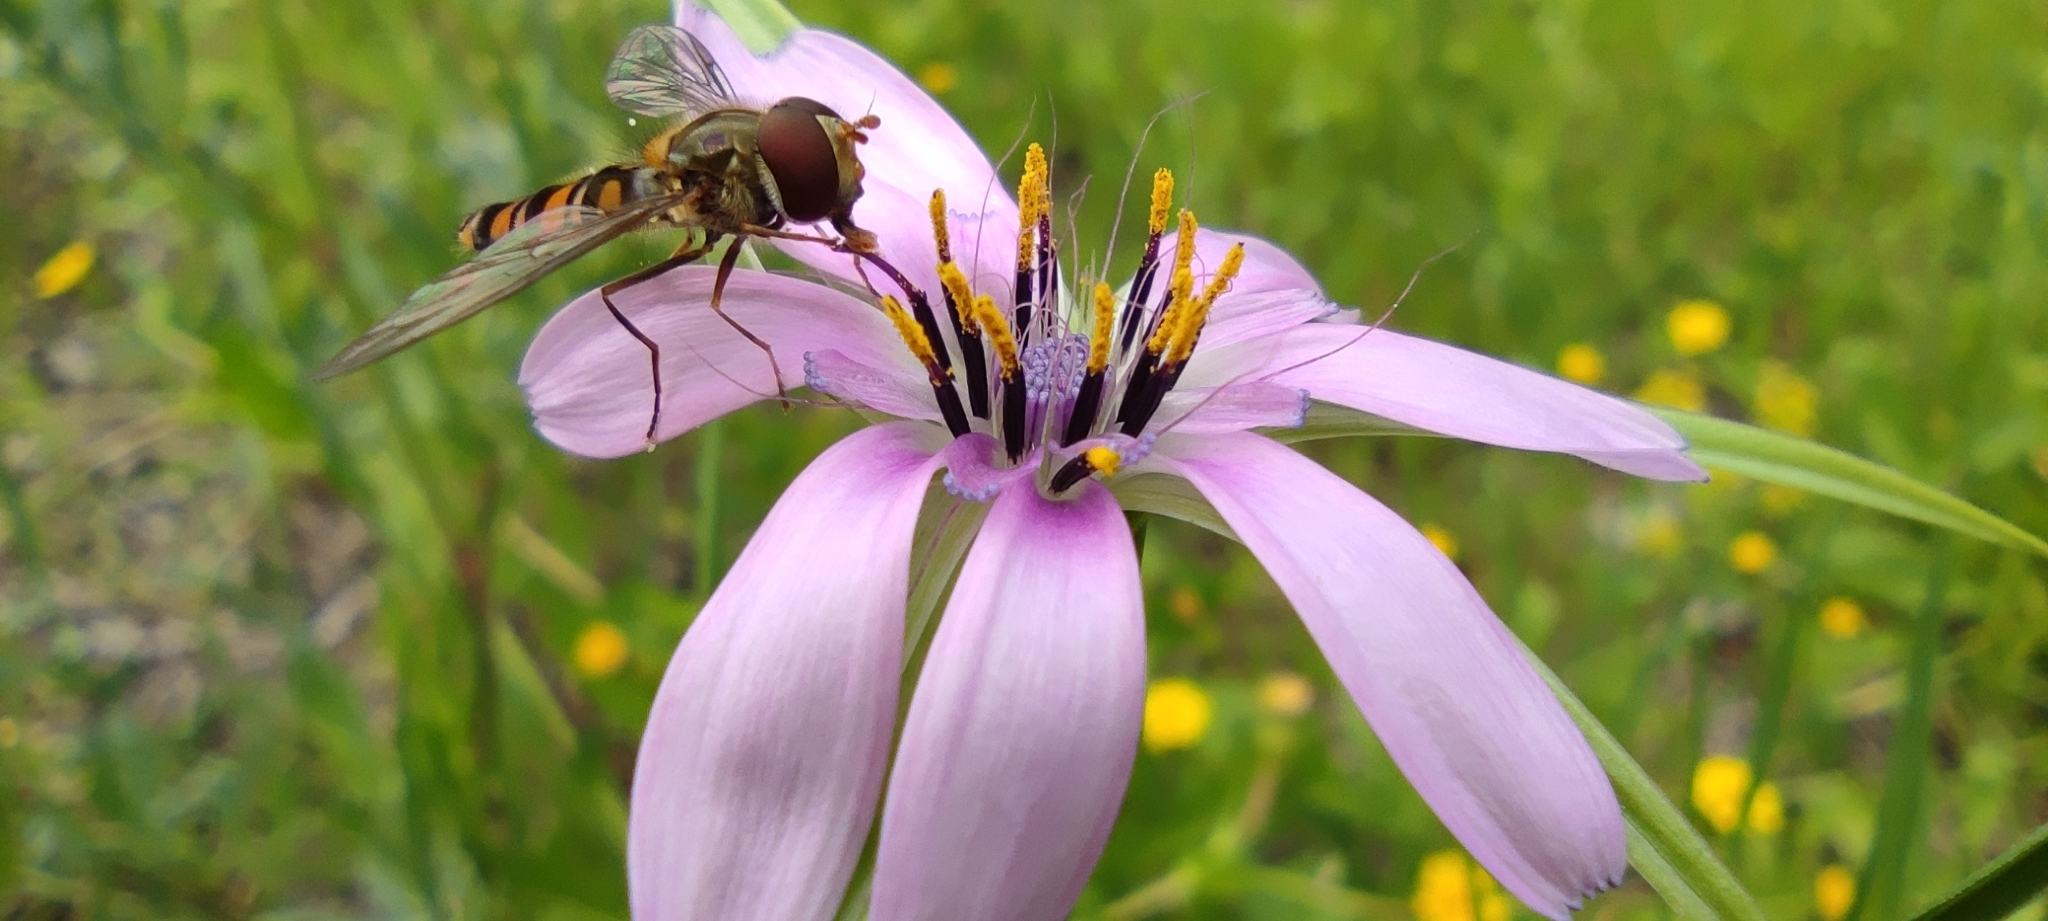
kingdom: Animalia
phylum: Arthropoda
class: Insecta
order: Diptera
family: Syrphidae
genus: Episyrphus
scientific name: Episyrphus balteatus
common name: Marmalade hoverfly
